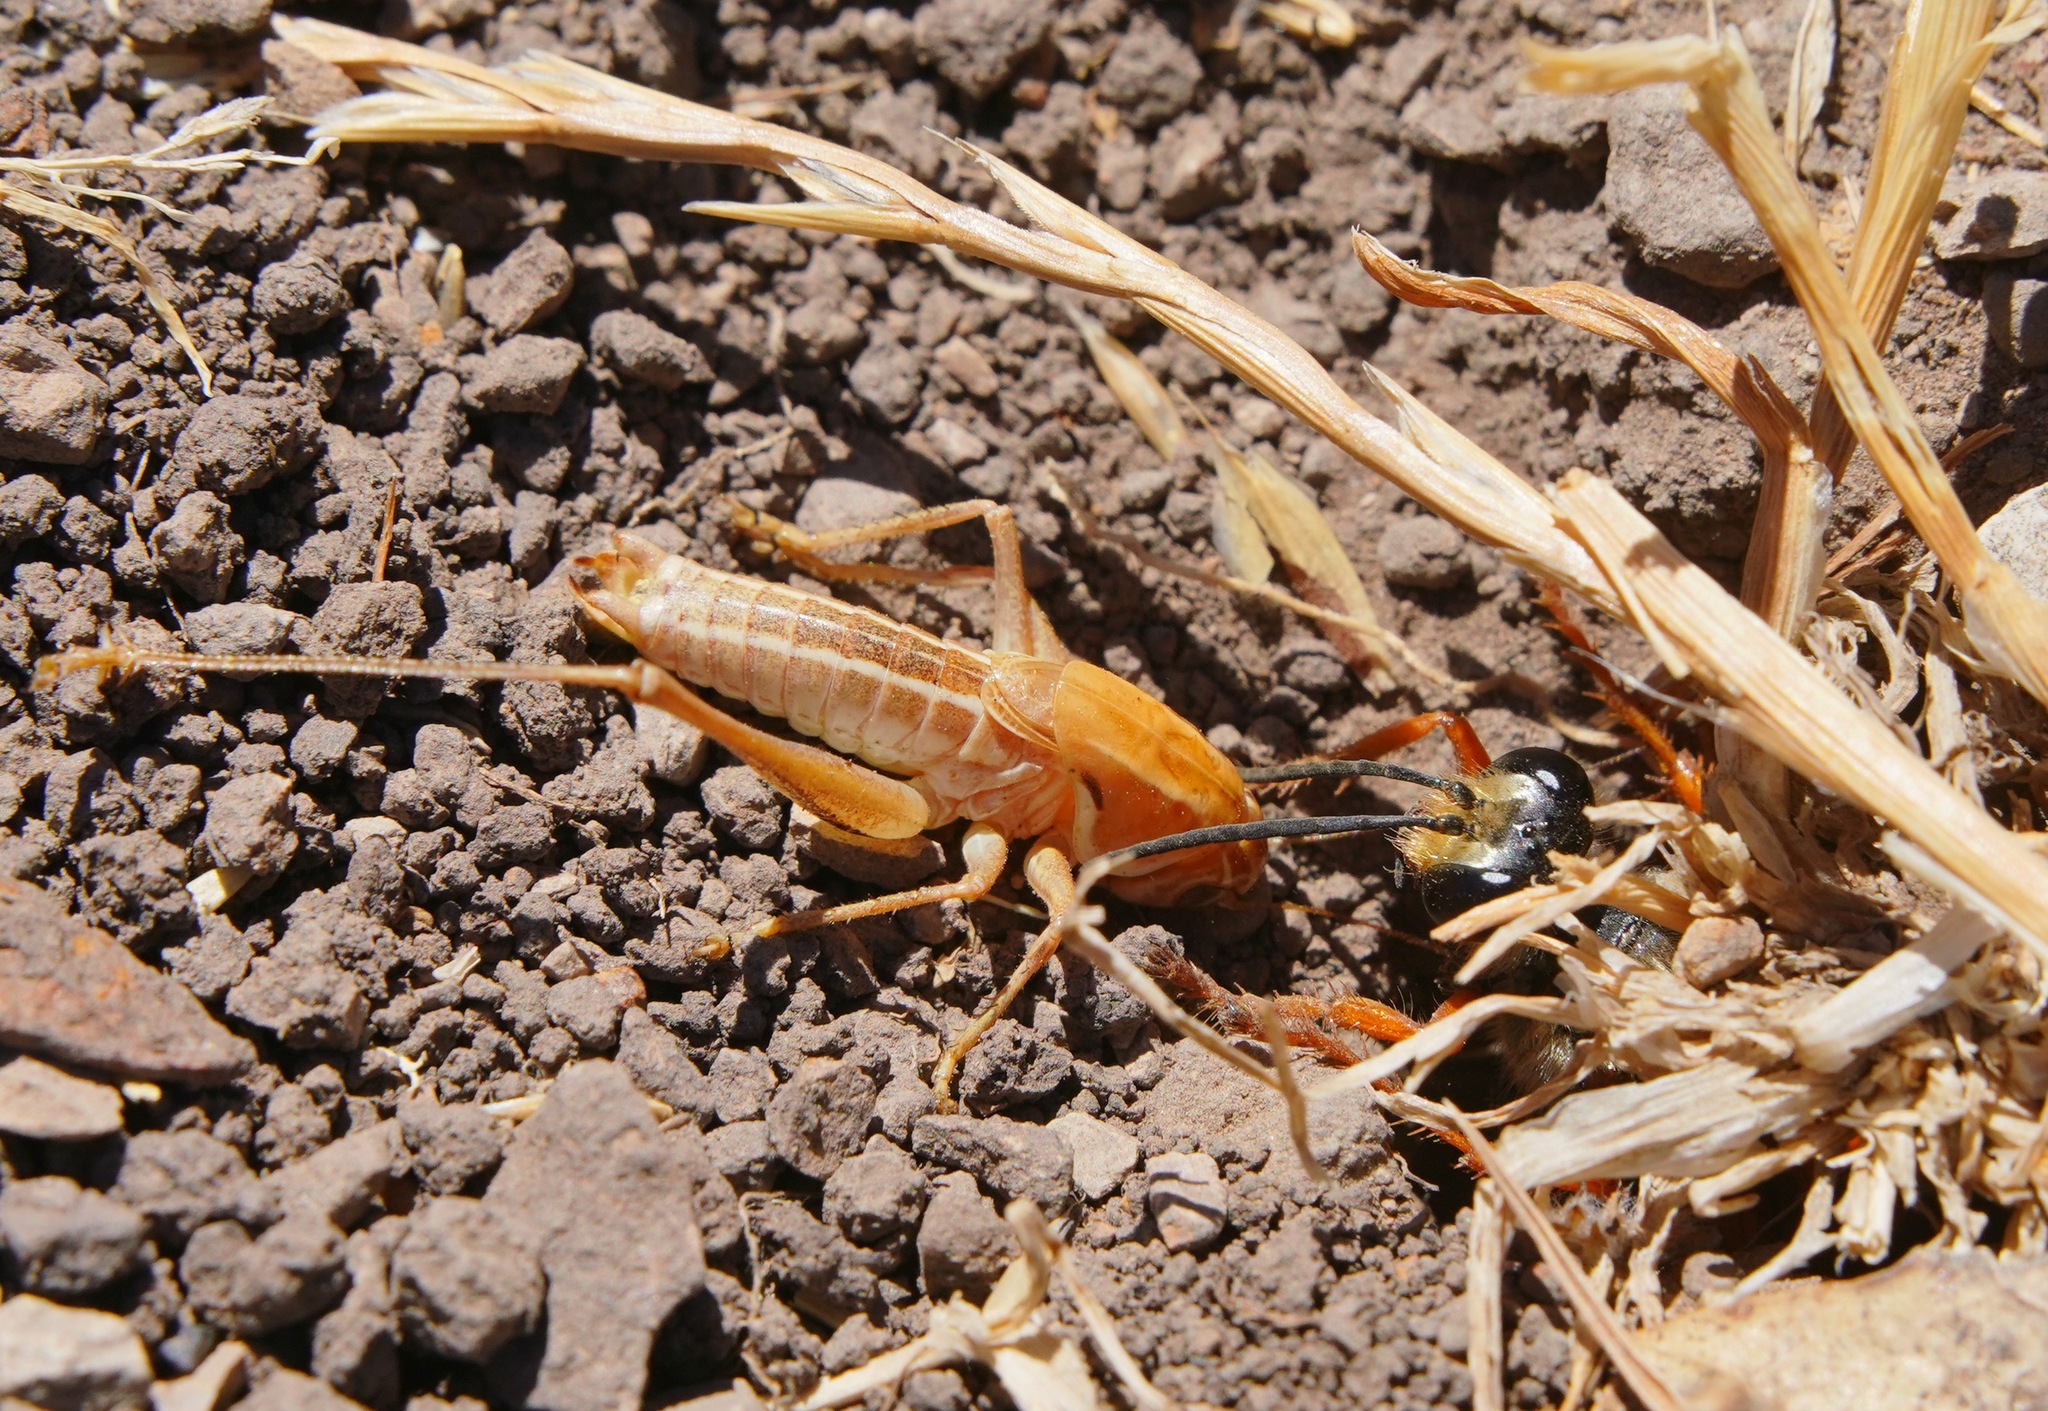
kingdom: Animalia
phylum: Arthropoda
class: Insecta
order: Orthoptera
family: Tettigoniidae
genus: Decticita
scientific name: Decticita brevicauda
